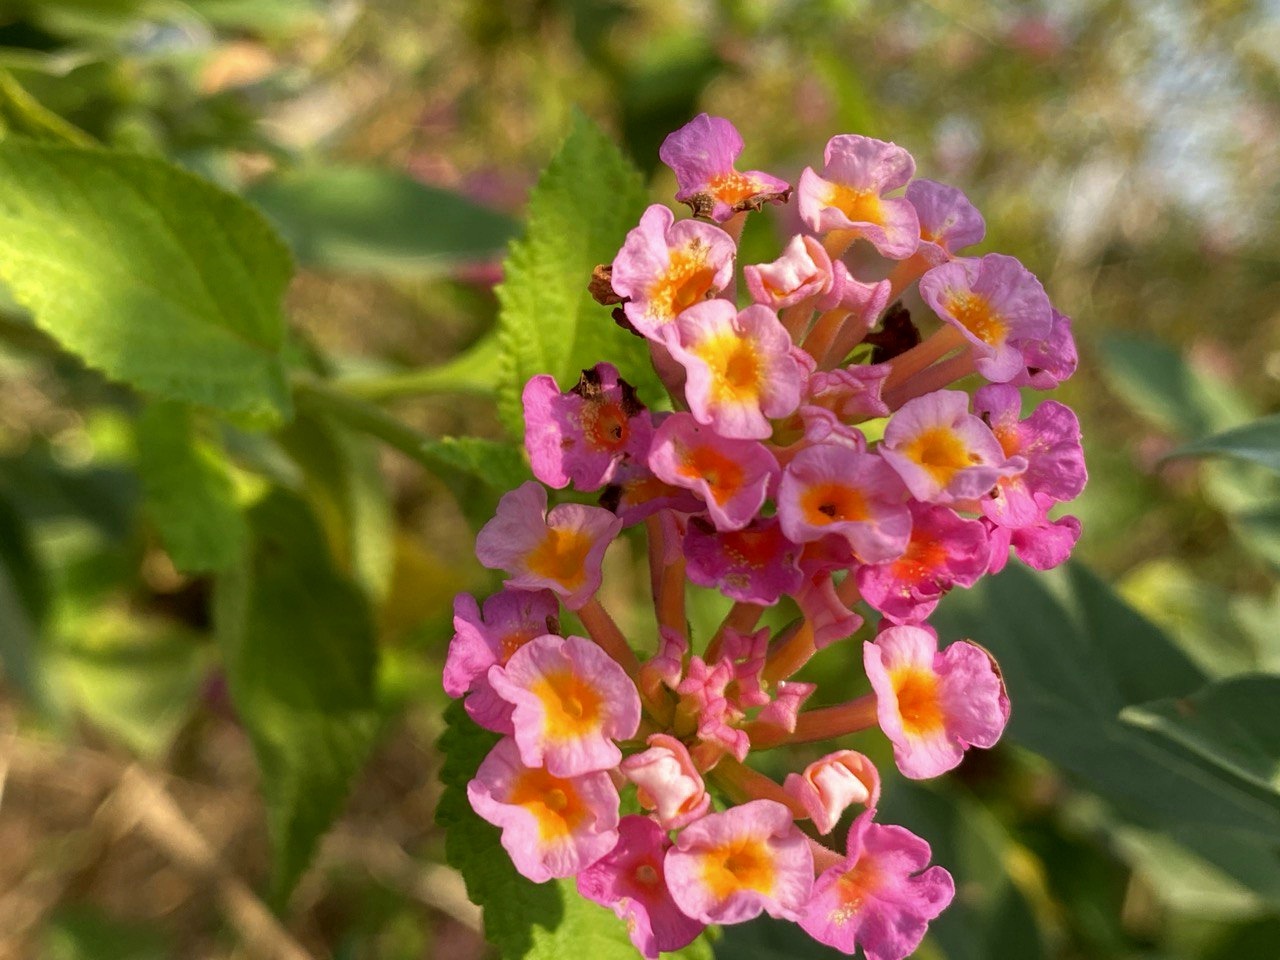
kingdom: Plantae
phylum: Tracheophyta
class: Magnoliopsida
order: Lamiales
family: Verbenaceae
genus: Lantana
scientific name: Lantana camara
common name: Lantana
